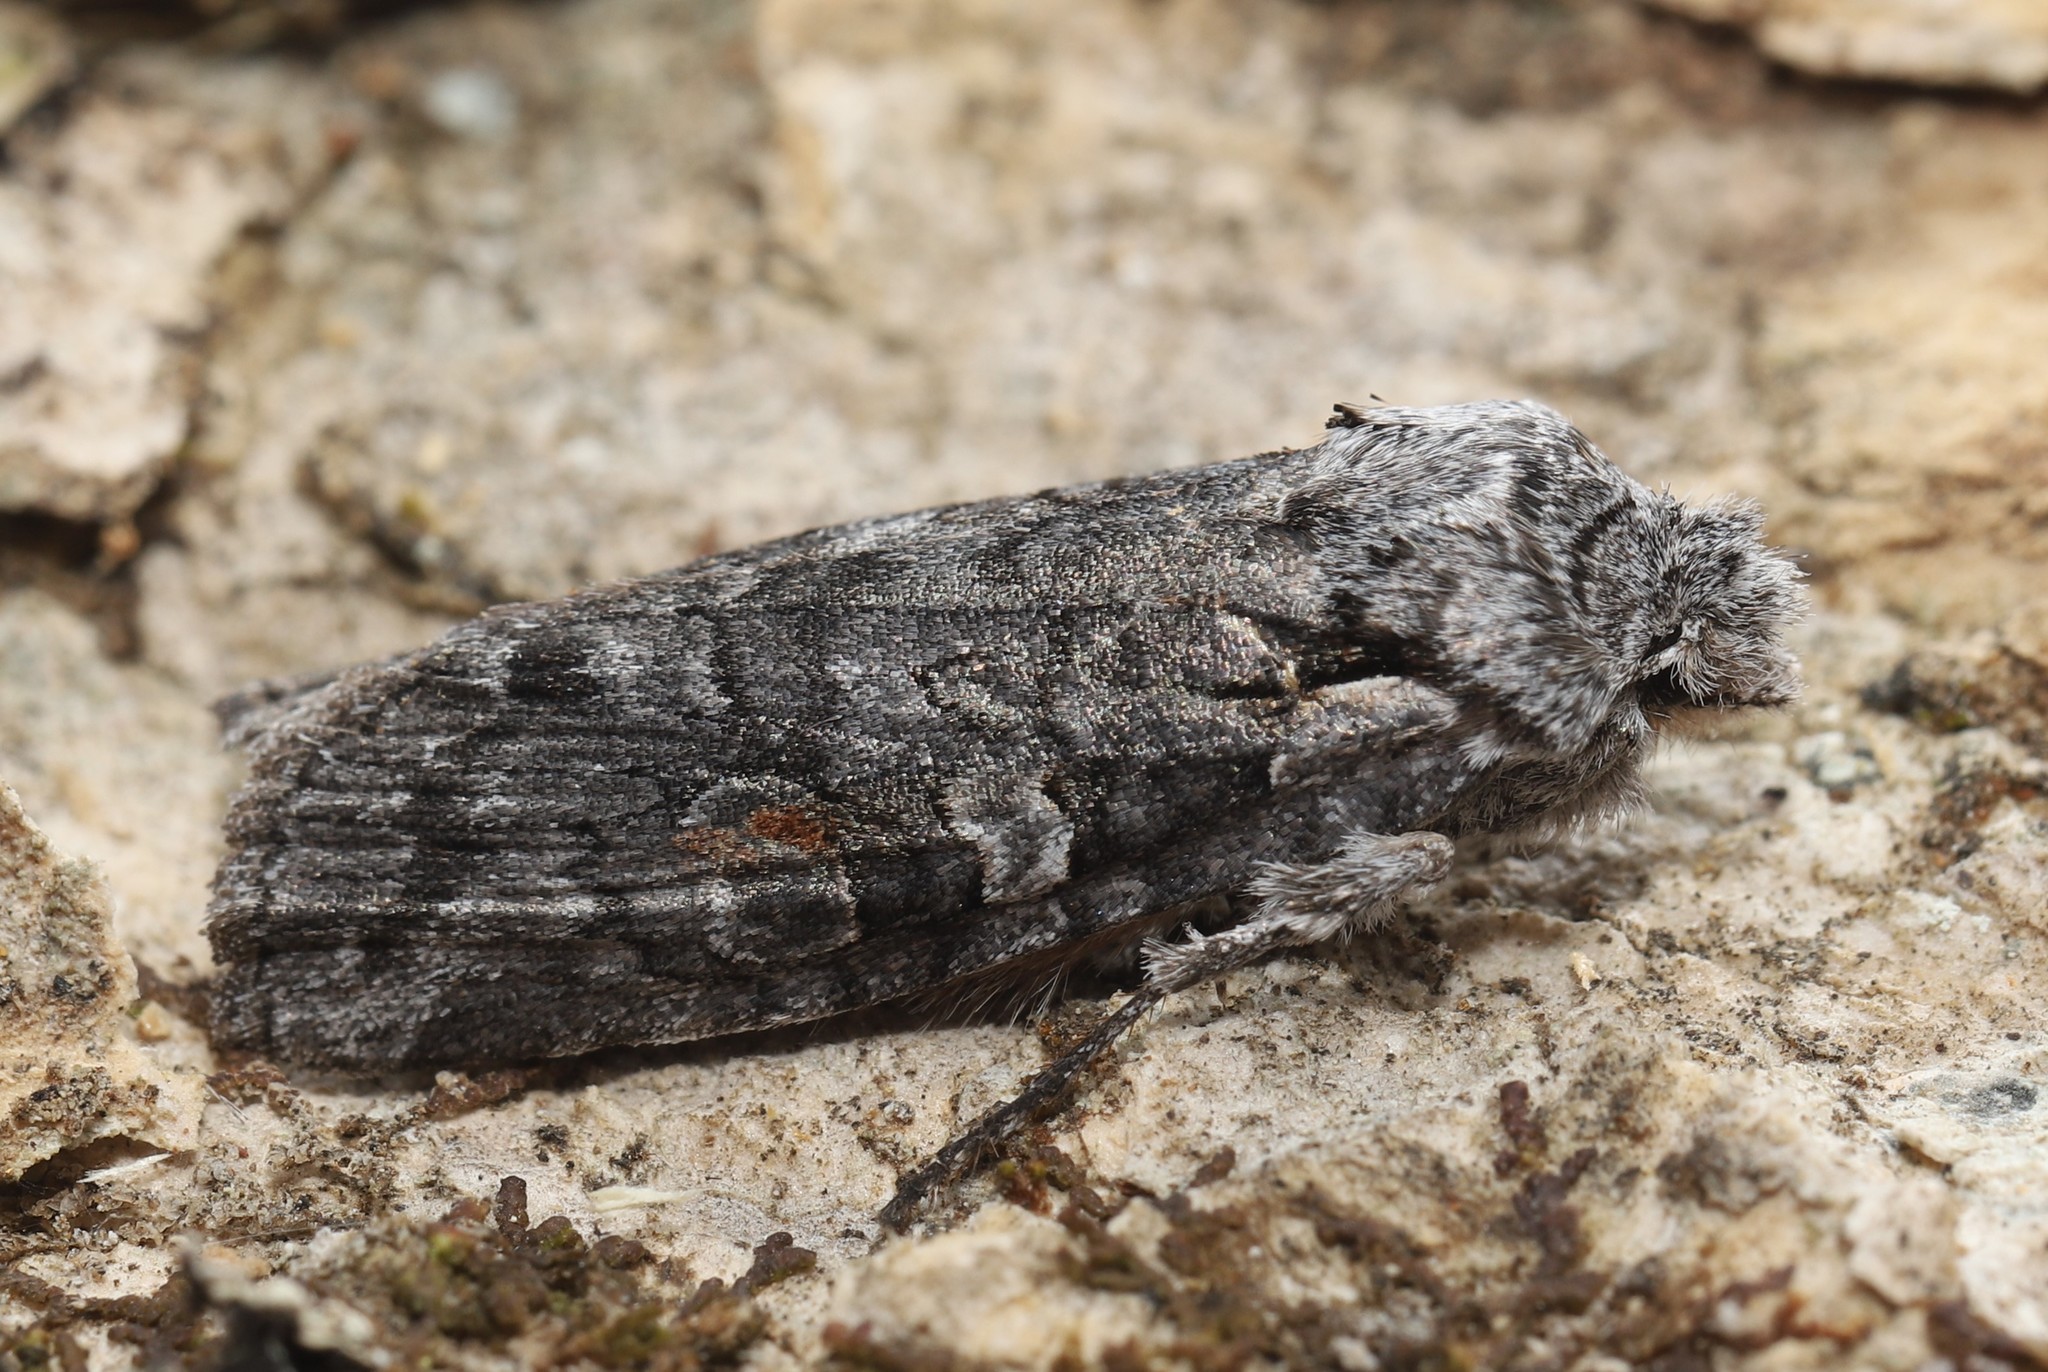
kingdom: Animalia
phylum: Arthropoda
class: Insecta
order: Lepidoptera
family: Noctuidae
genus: Lithophane
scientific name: Lithophane pexata
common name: Plush-naped pinion moth
